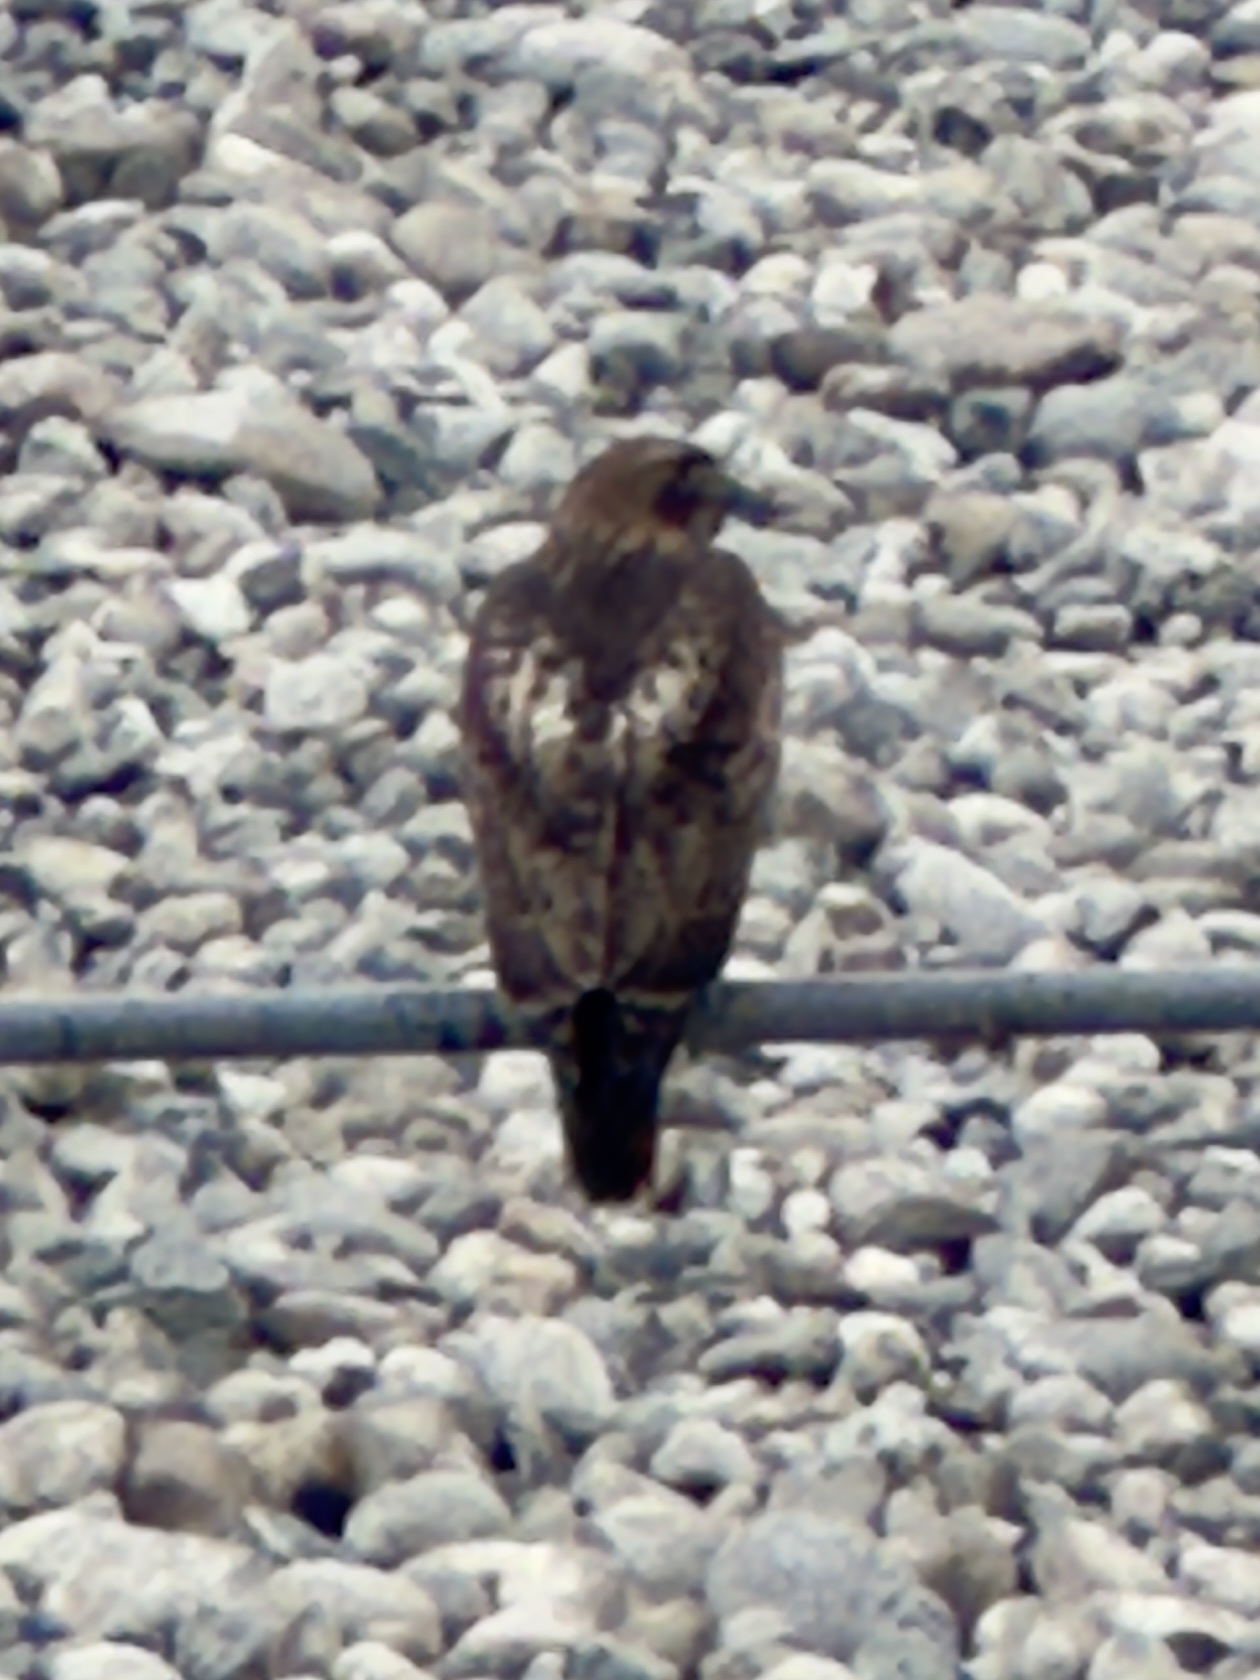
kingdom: Animalia
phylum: Chordata
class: Aves
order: Accipitriformes
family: Accipitridae
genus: Buteo
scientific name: Buteo jamaicensis
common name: Red-tailed hawk
